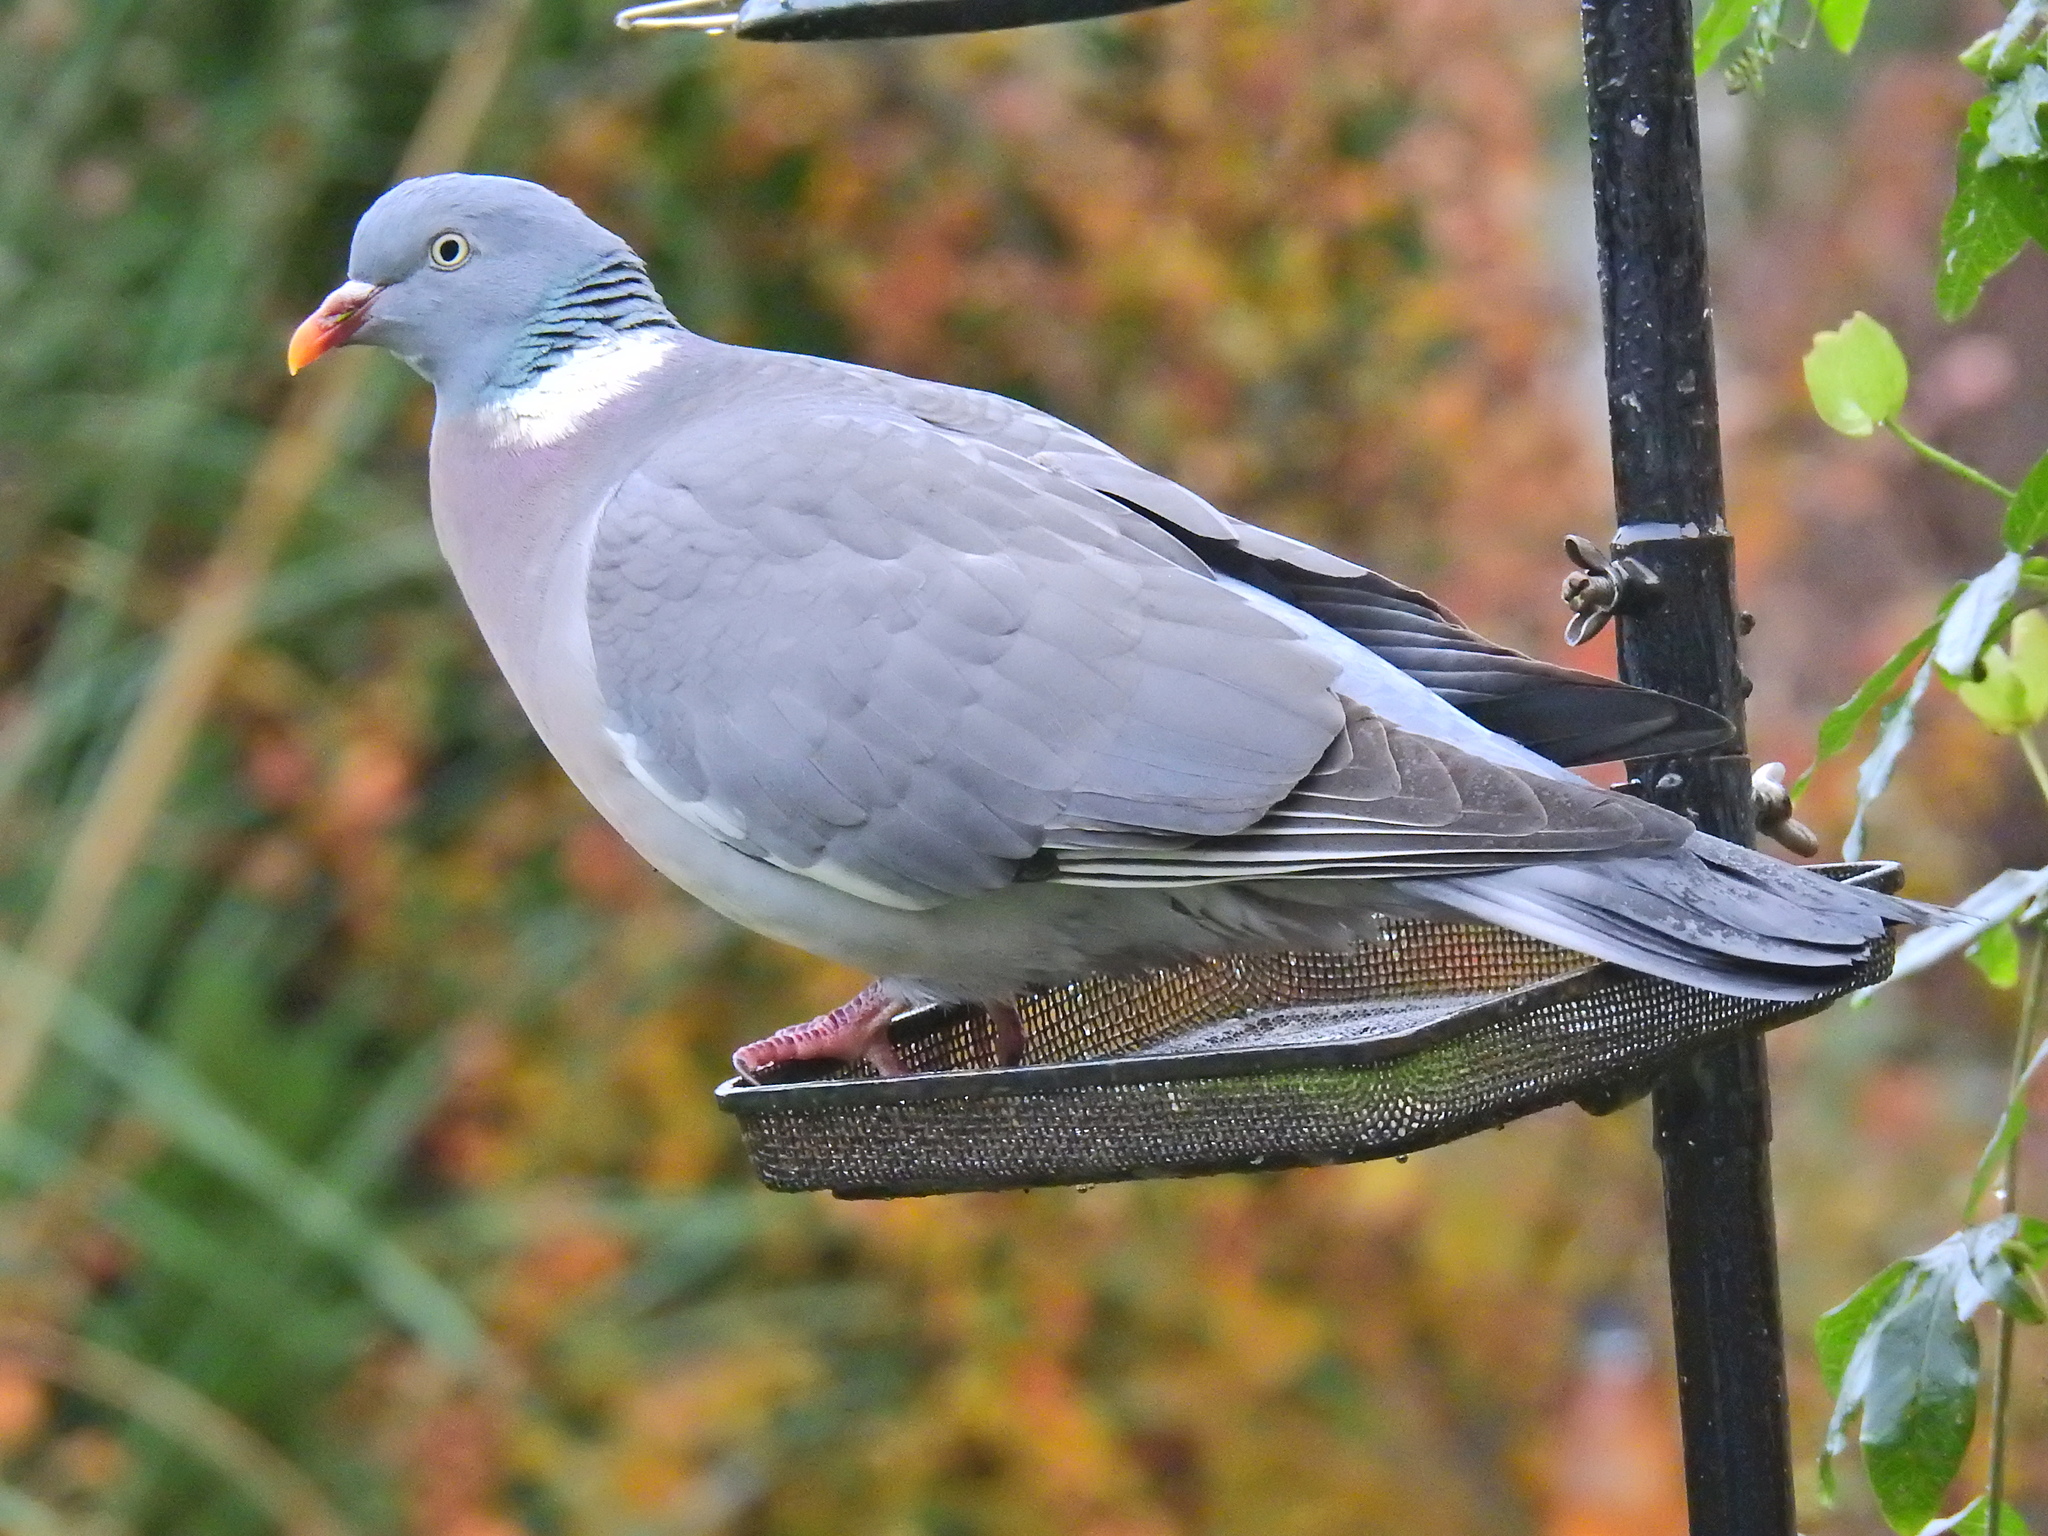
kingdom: Animalia
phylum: Chordata
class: Aves
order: Columbiformes
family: Columbidae
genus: Columba
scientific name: Columba palumbus
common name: Common wood pigeon
